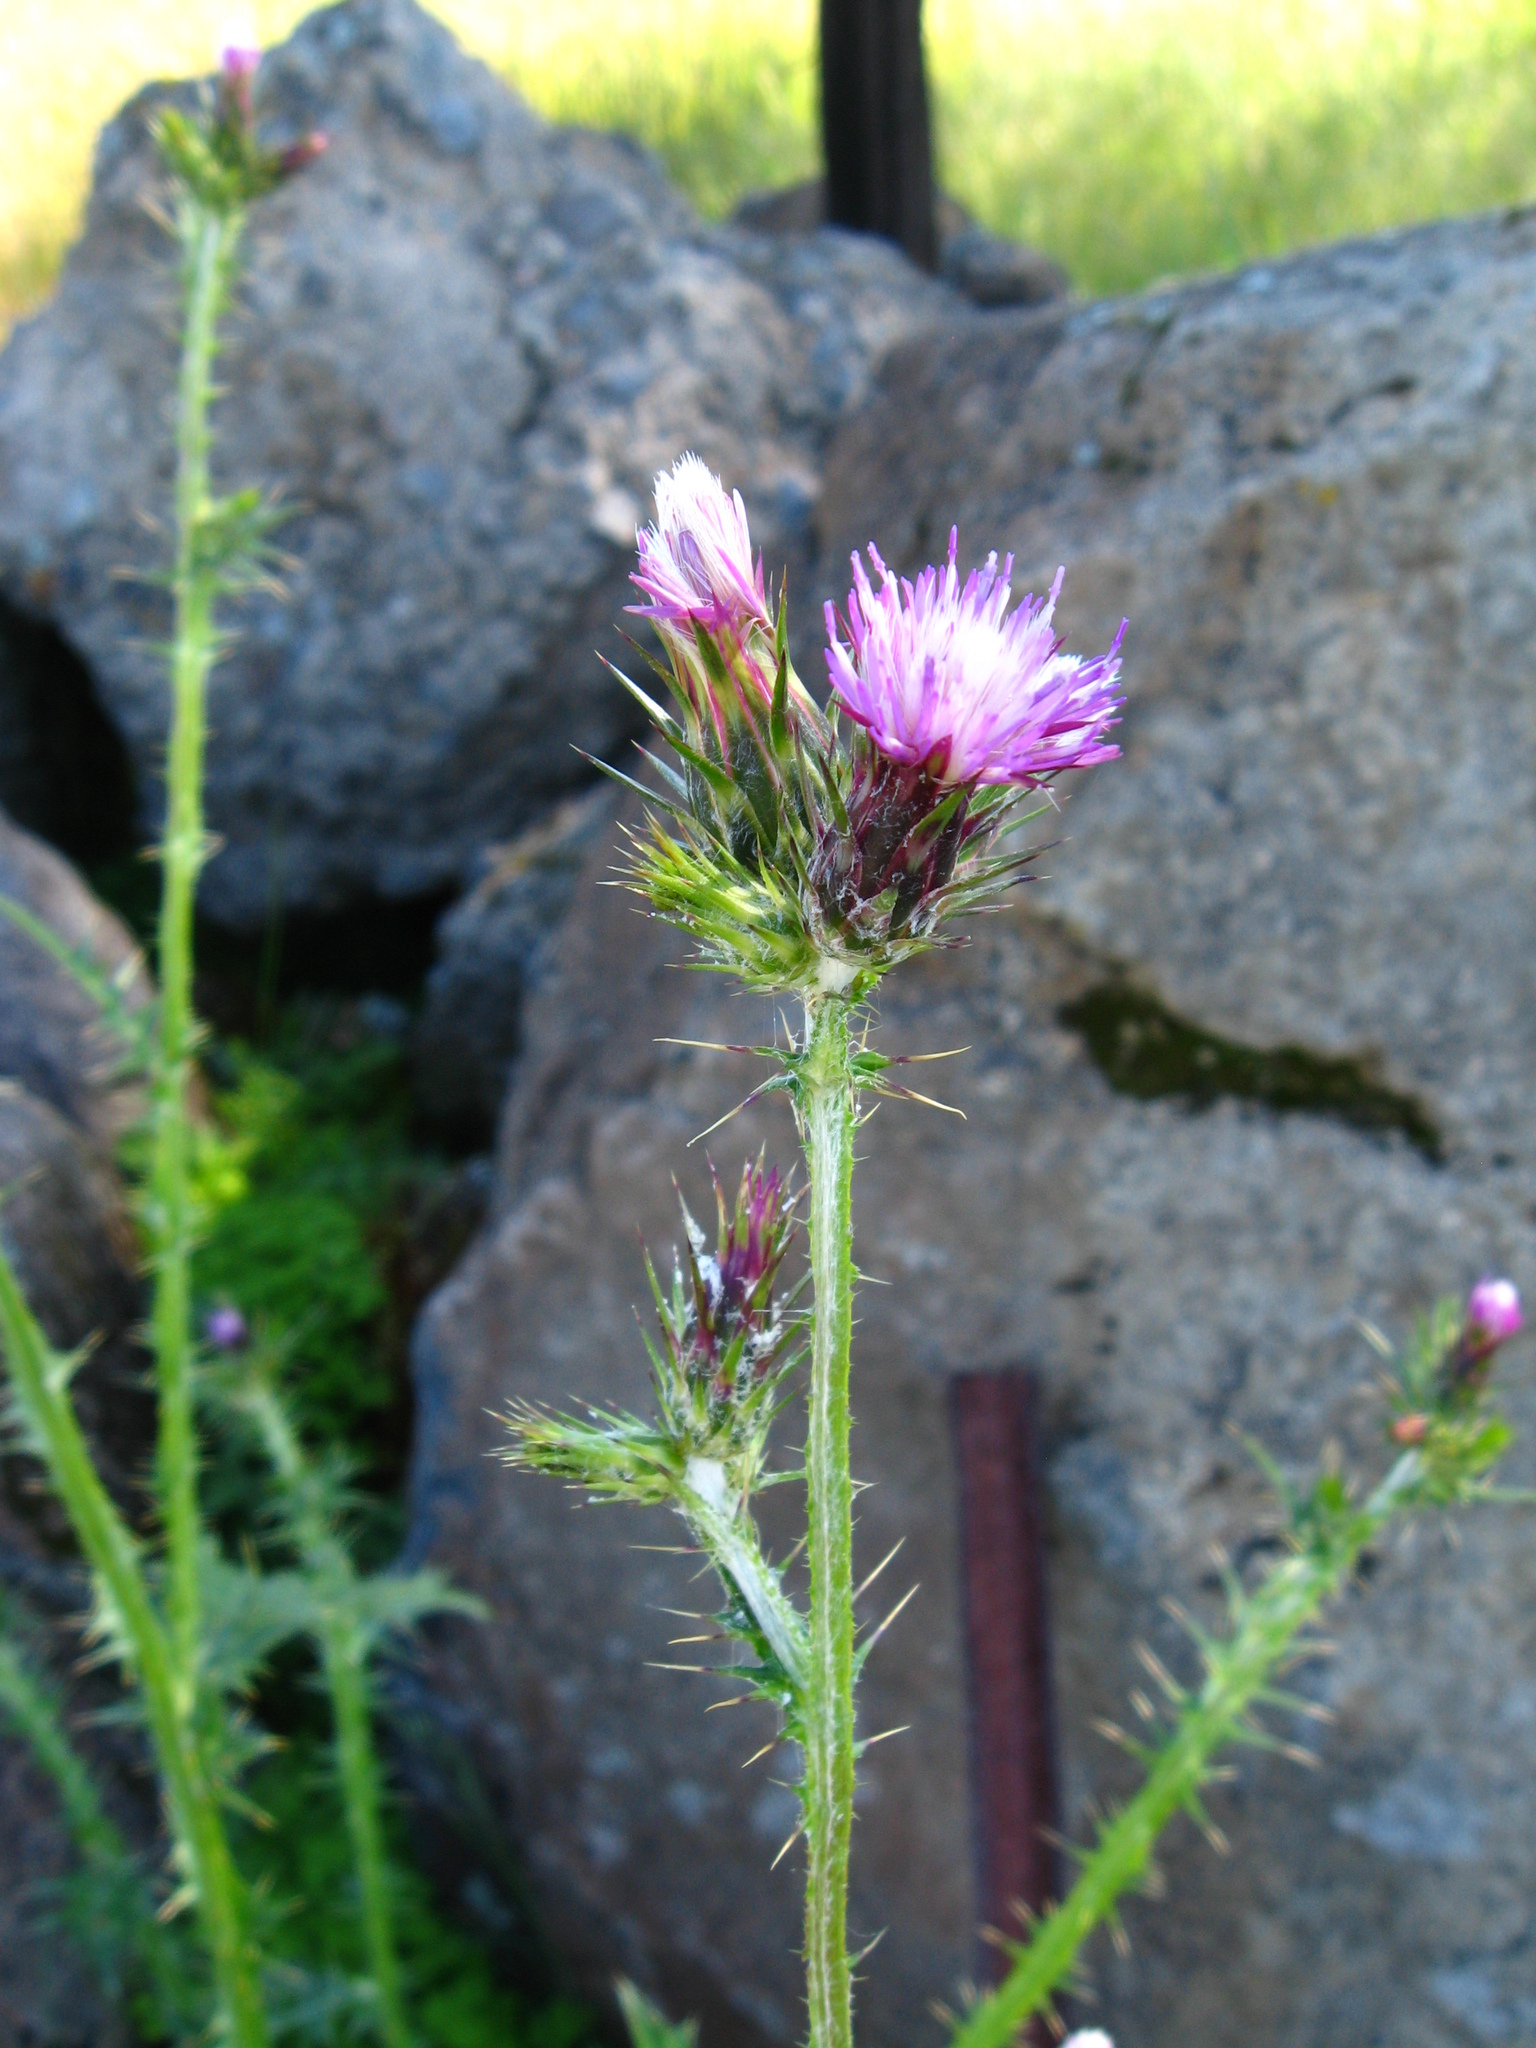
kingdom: Plantae
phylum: Tracheophyta
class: Magnoliopsida
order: Asterales
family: Asteraceae
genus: Carduus
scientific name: Carduus pycnocephalus
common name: Plymouth thistle
